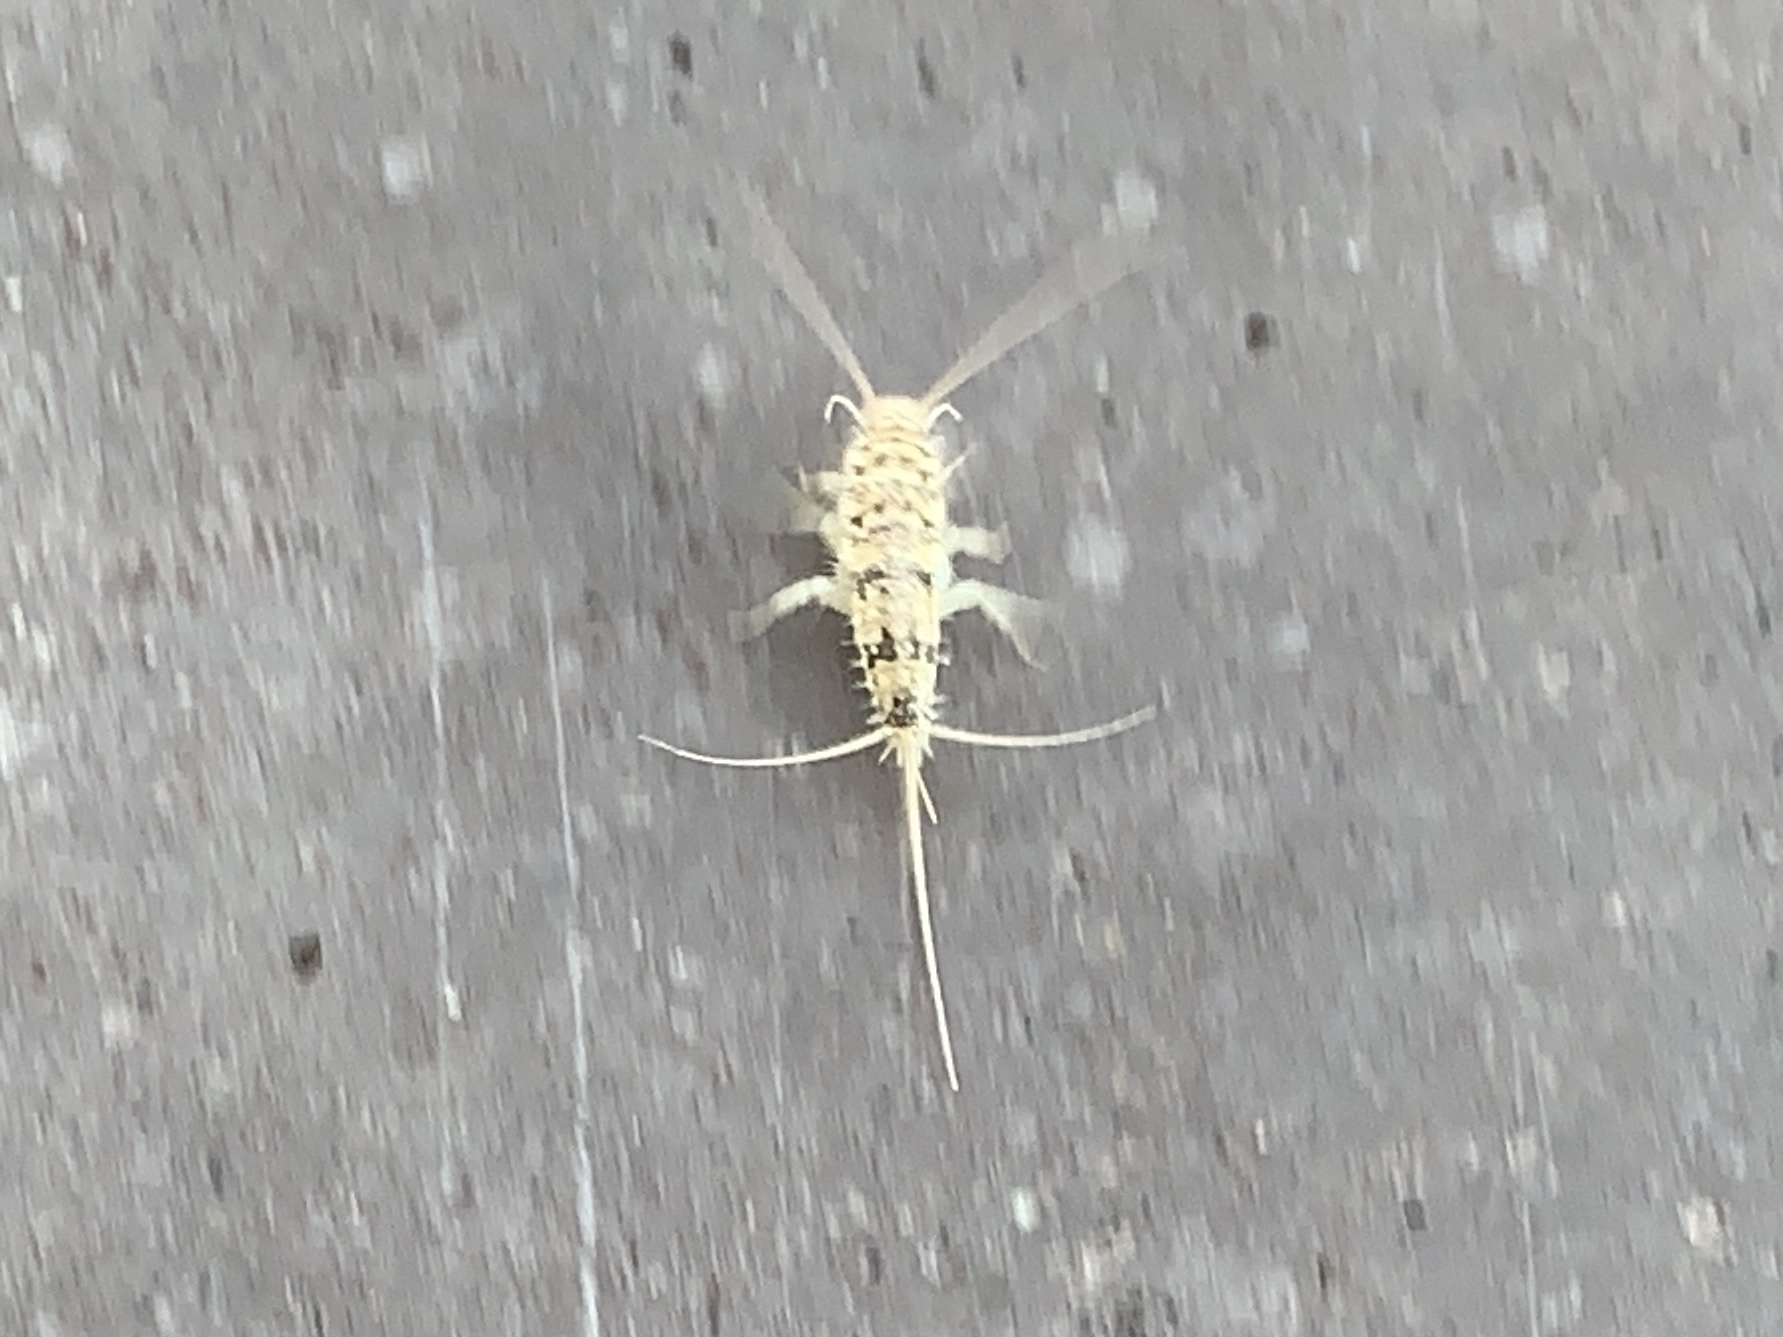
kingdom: Animalia
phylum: Arthropoda
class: Insecta
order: Zygentoma
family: Lepismatidae
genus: Thermobia
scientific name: Thermobia domestica
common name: Firebrat
